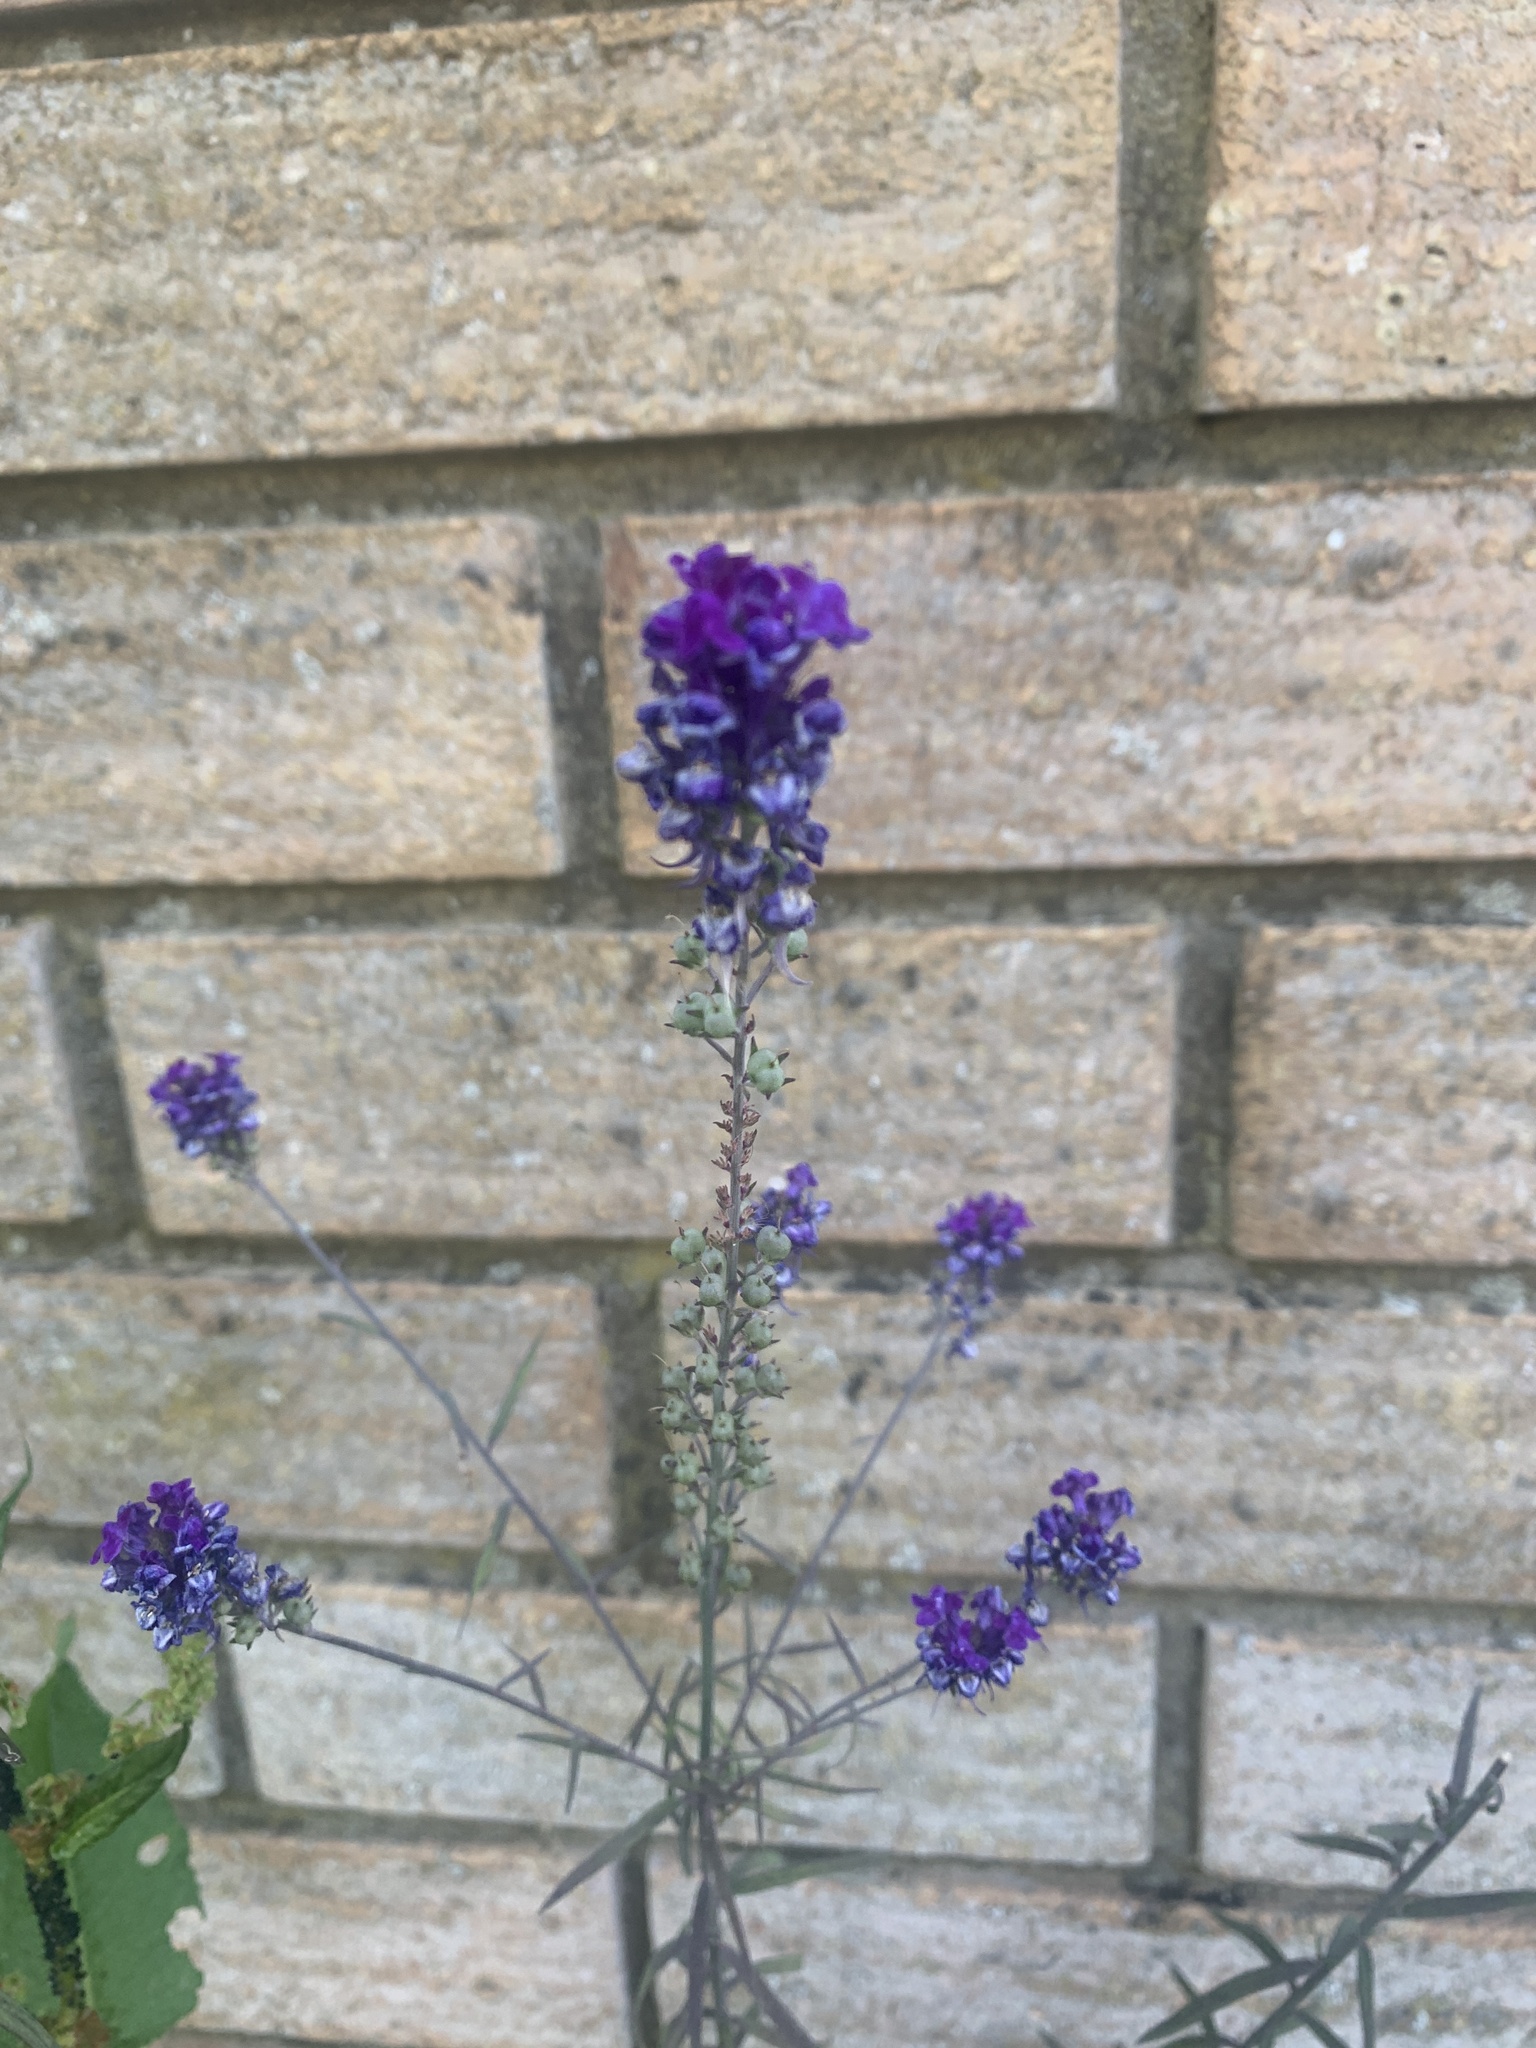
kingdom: Plantae
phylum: Tracheophyta
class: Magnoliopsida
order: Lamiales
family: Plantaginaceae
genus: Linaria
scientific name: Linaria purpurea
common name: Purple toadflax
